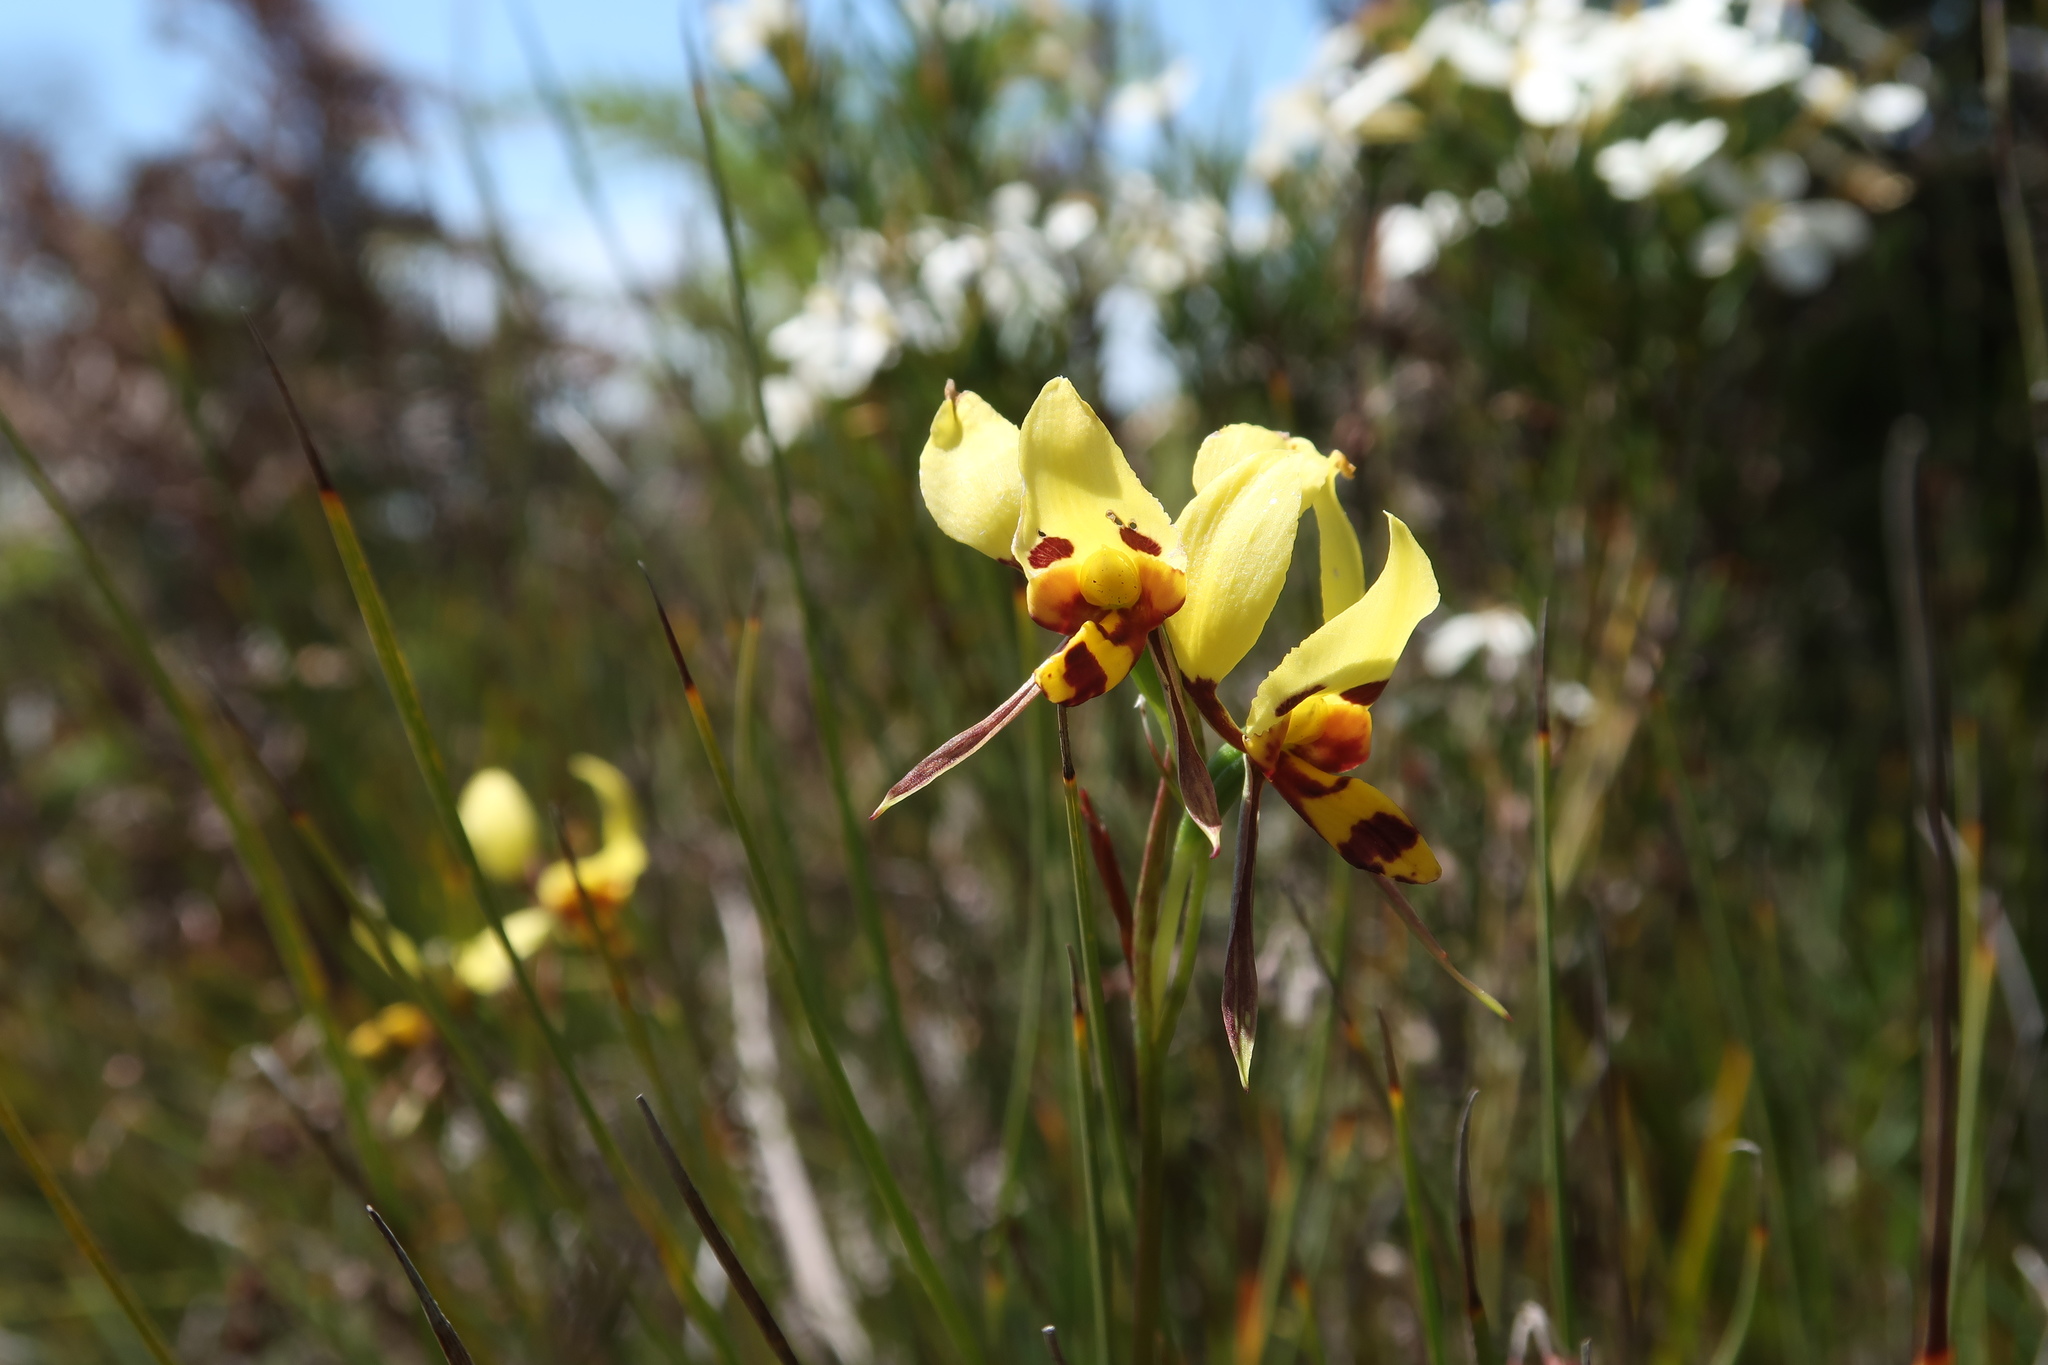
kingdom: Plantae
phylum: Tracheophyta
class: Liliopsida
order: Asparagales
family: Orchidaceae
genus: Diuris
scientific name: Diuris sulphurea
